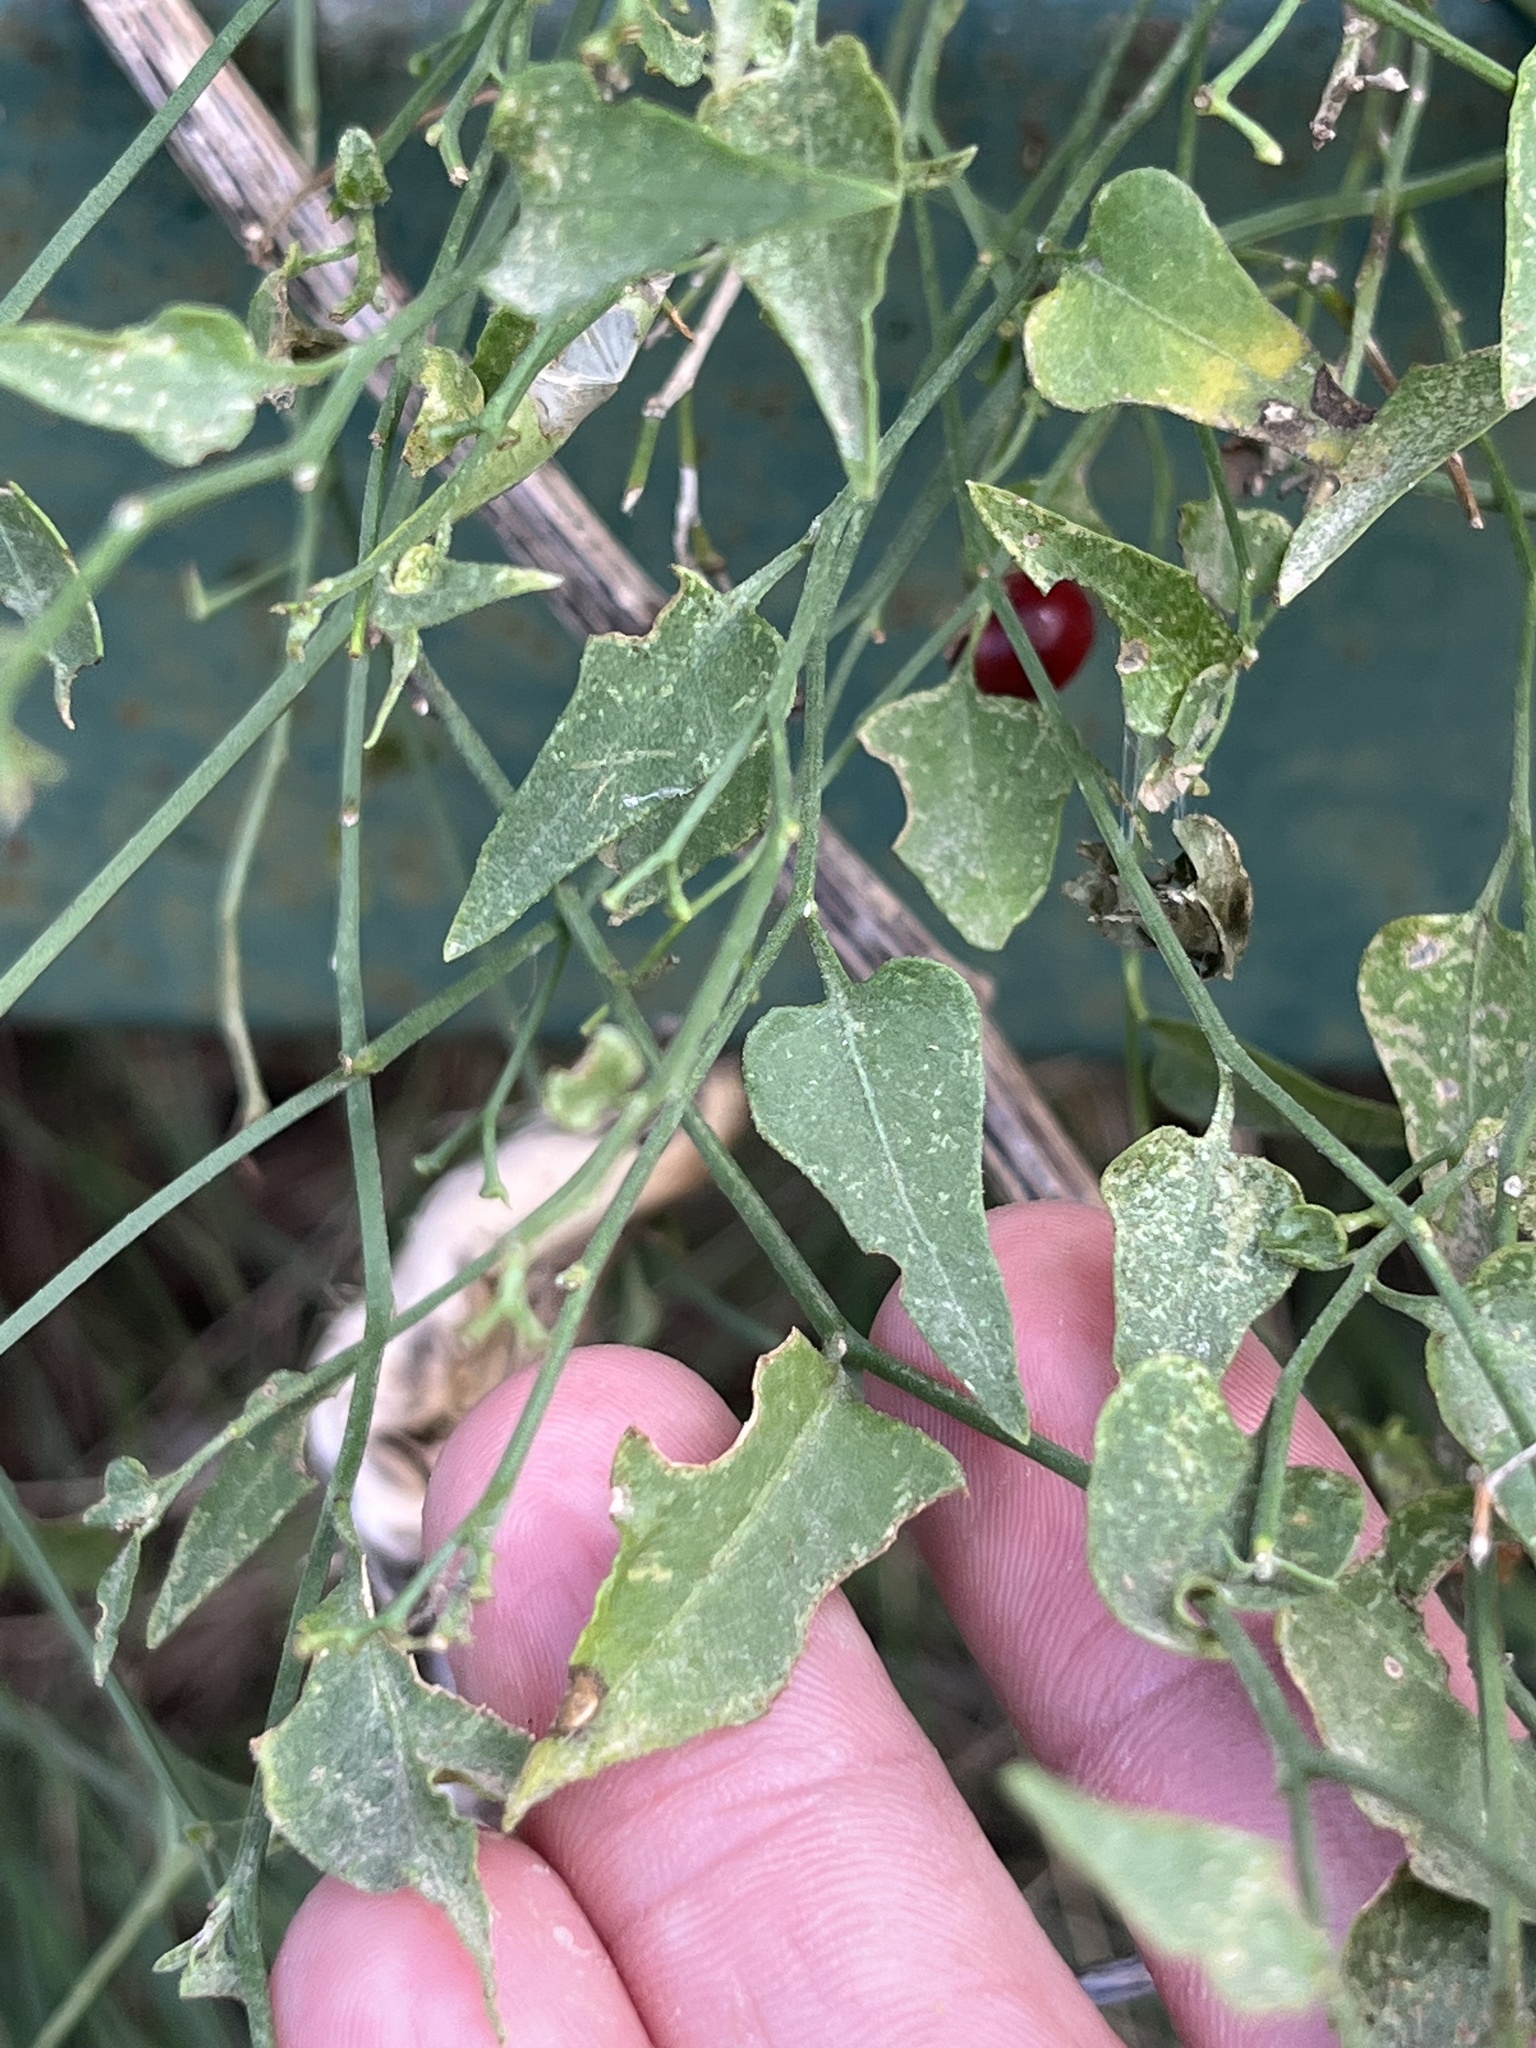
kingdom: Plantae
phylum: Tracheophyta
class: Magnoliopsida
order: Solanales
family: Solanaceae
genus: Solanum
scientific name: Solanum triquetrum
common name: Texas nightshade
